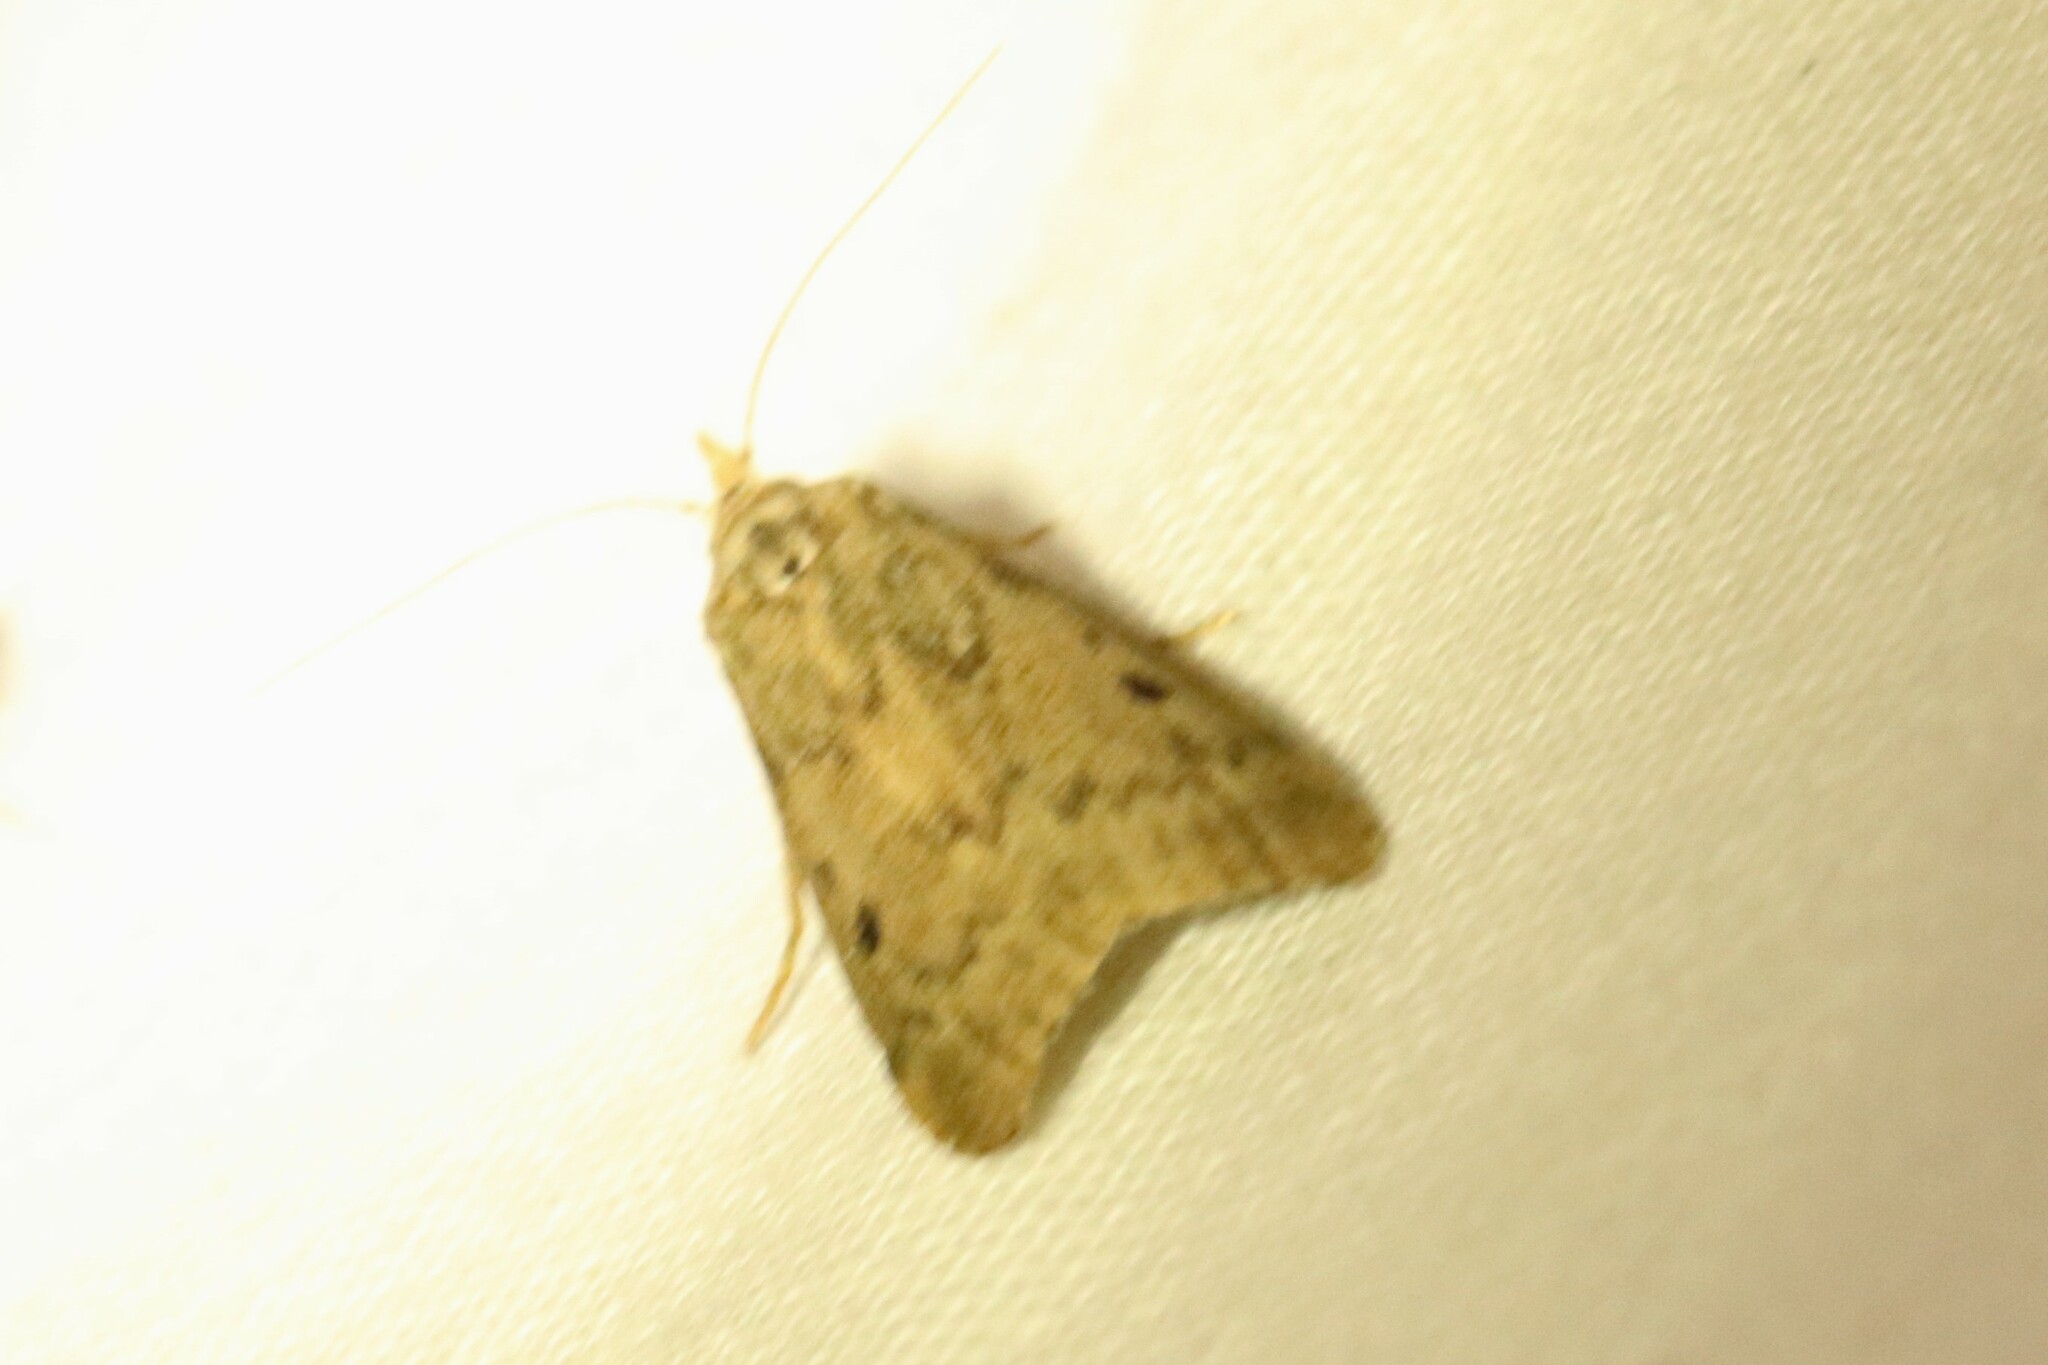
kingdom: Animalia
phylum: Arthropoda
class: Insecta
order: Lepidoptera
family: Pyralidae
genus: Aphomia
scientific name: Aphomia sociella
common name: Bee moth
